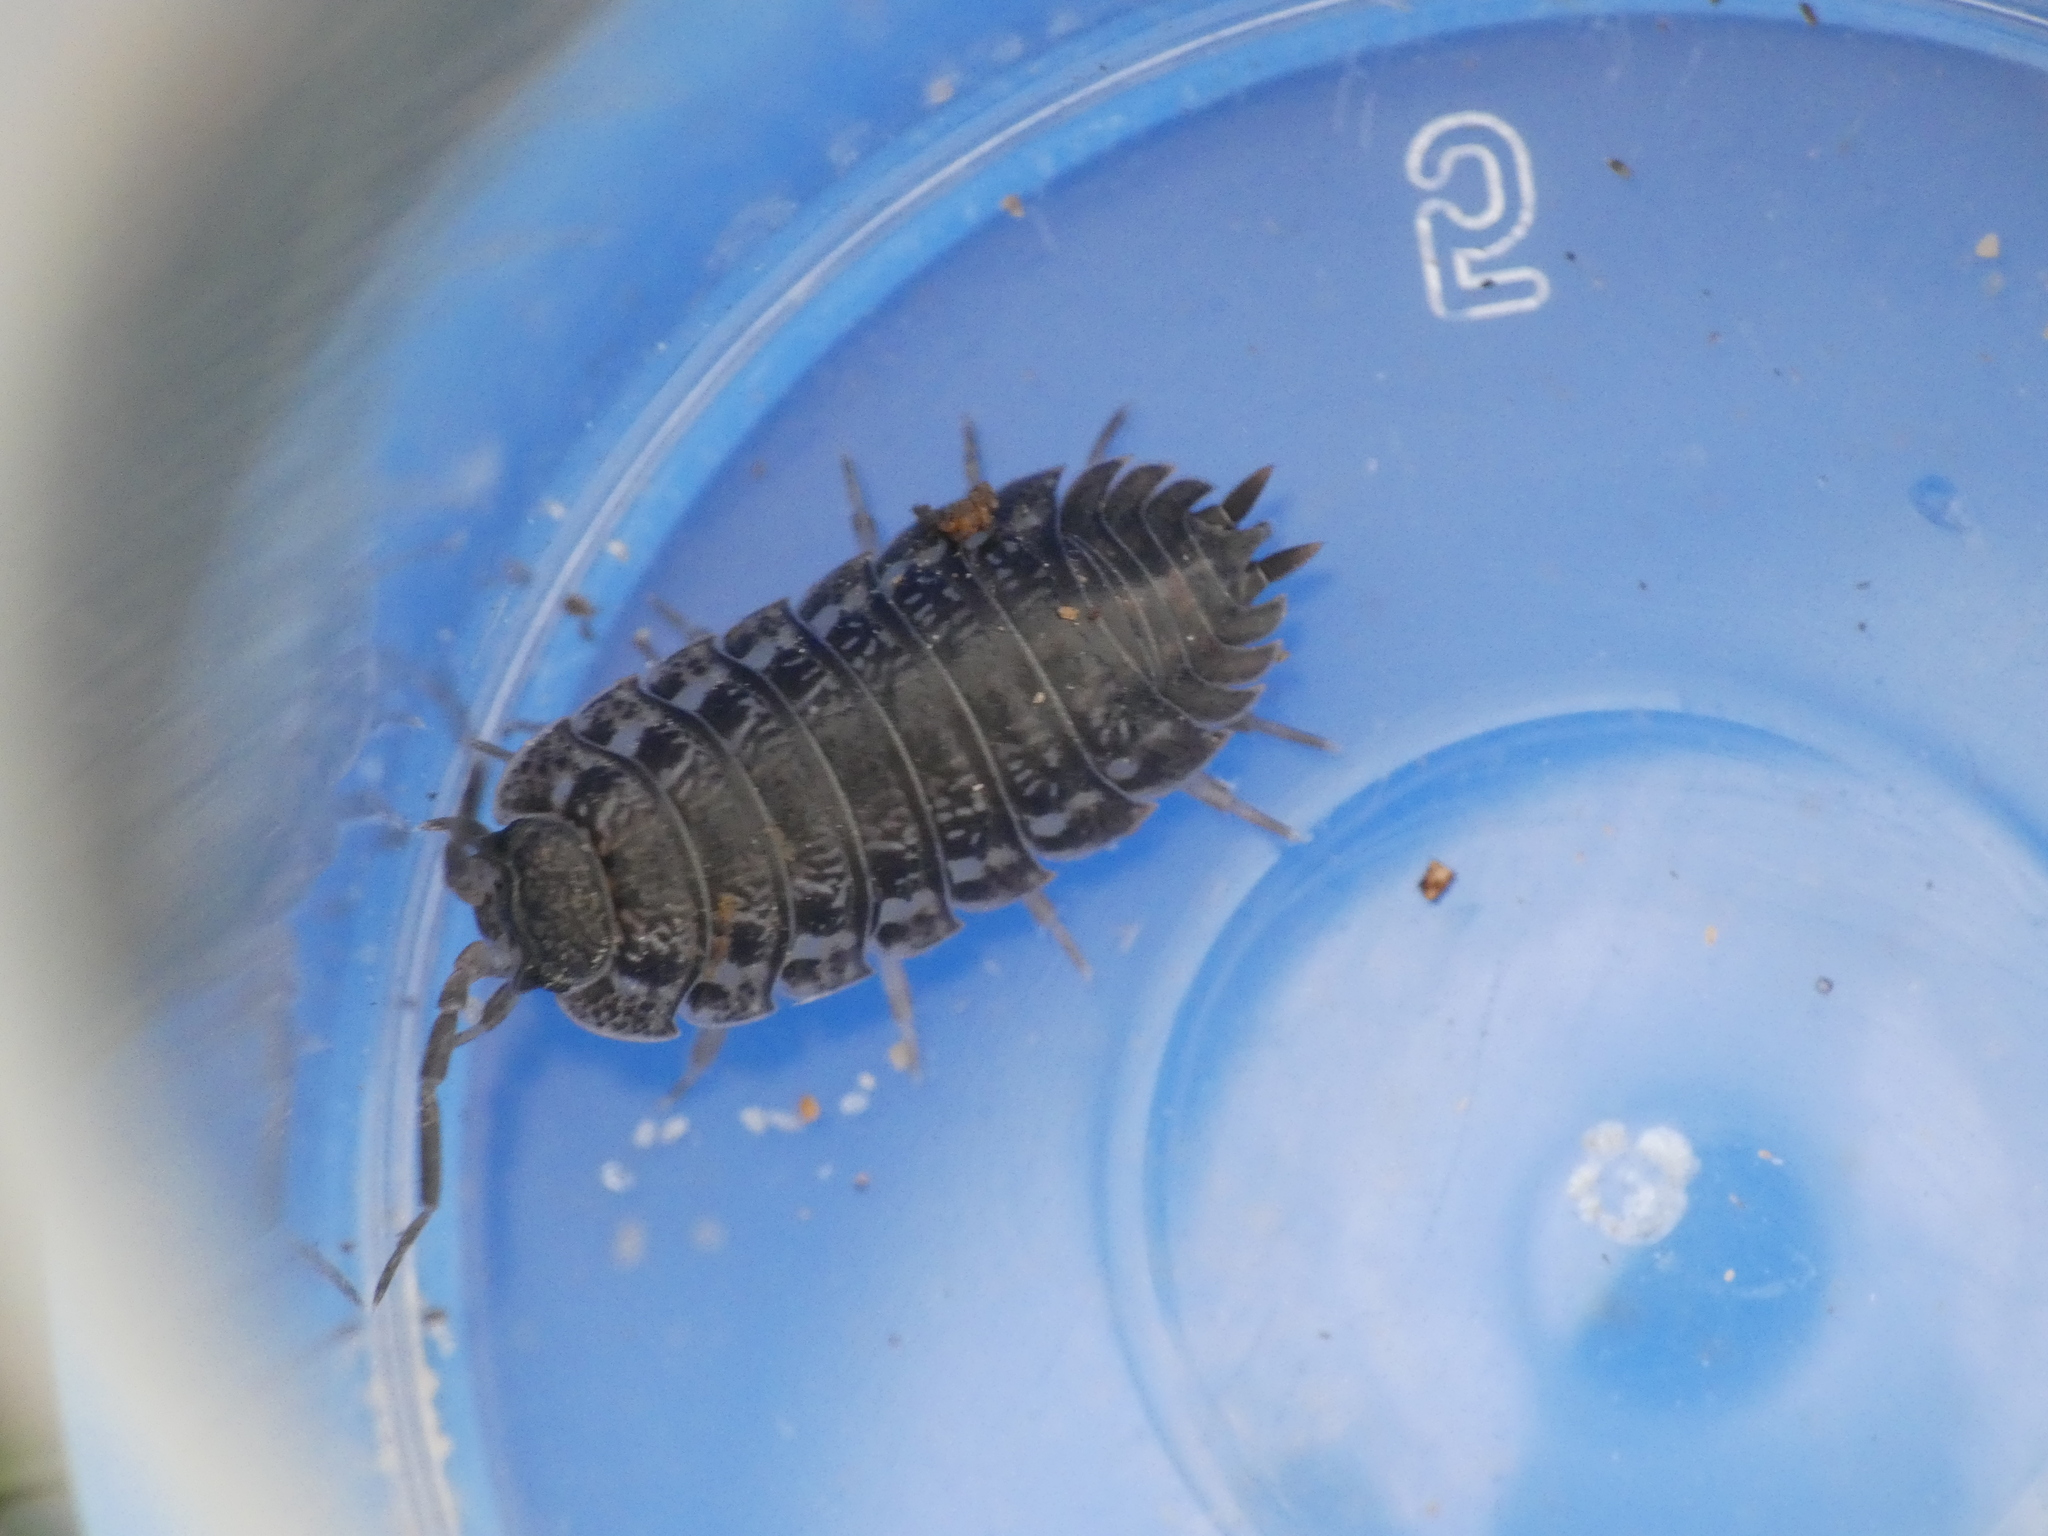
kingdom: Animalia
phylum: Arthropoda
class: Malacostraca
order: Isopoda
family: Trachelipodidae
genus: Trachelipus
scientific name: Trachelipus rathkii
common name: Isopod
